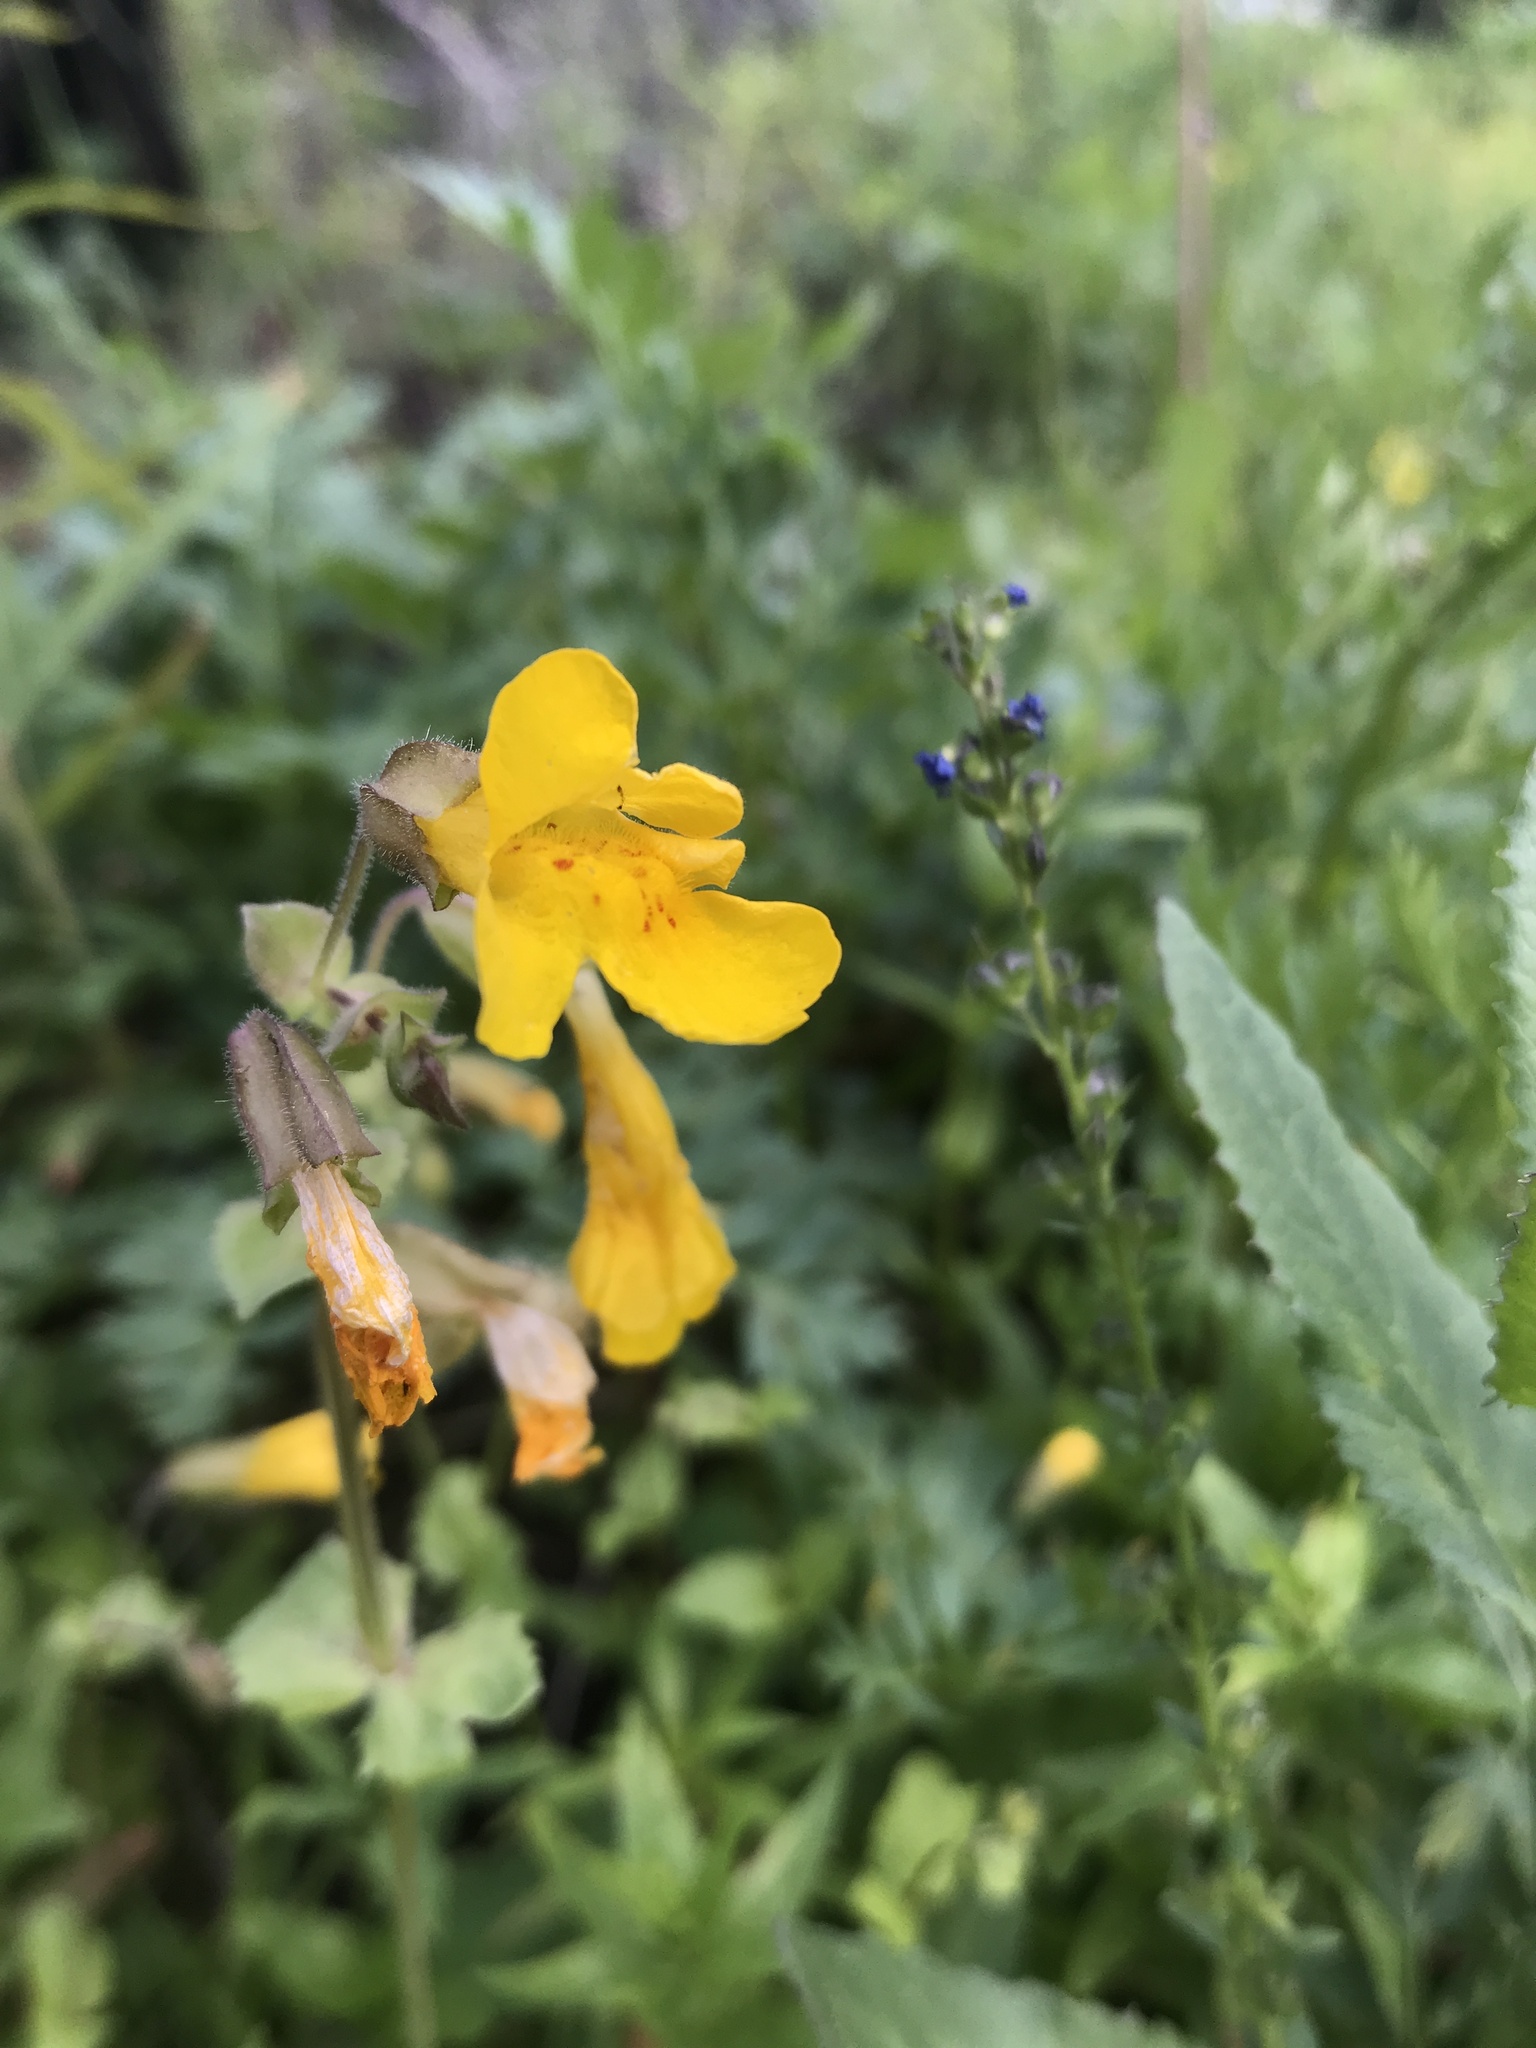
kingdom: Plantae
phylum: Tracheophyta
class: Magnoliopsida
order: Lamiales
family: Phrymaceae
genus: Erythranthe
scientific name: Erythranthe guttata
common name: Monkeyflower
